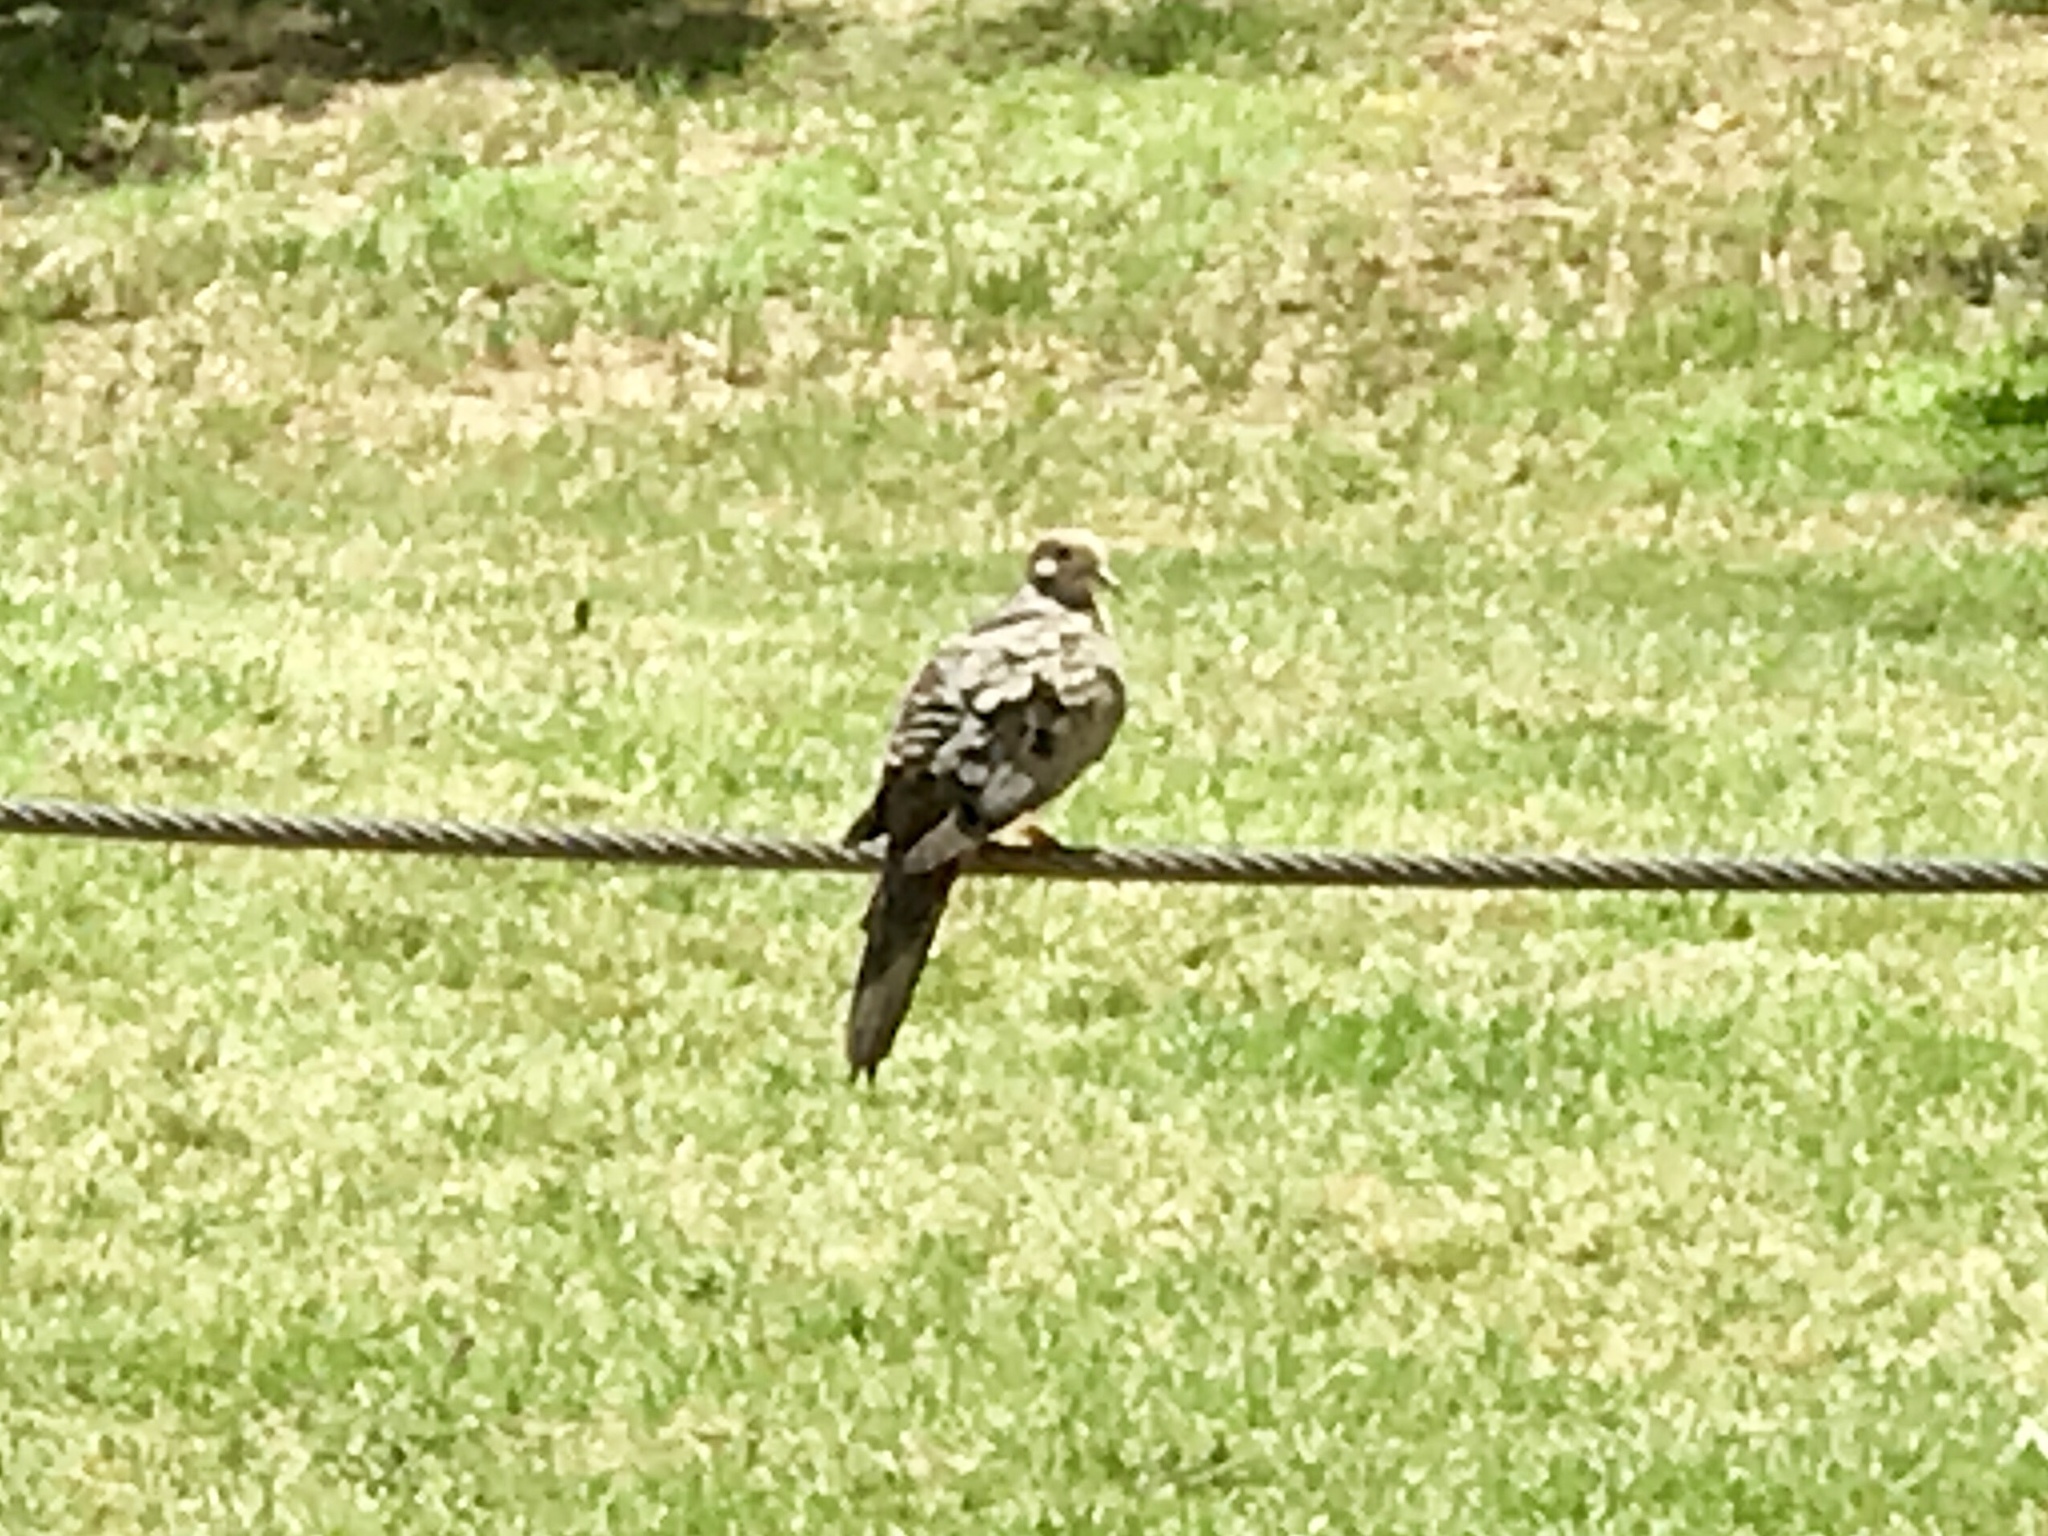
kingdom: Animalia
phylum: Chordata
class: Aves
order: Columbiformes
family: Columbidae
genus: Zenaida
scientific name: Zenaida macroura
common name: Mourning dove
